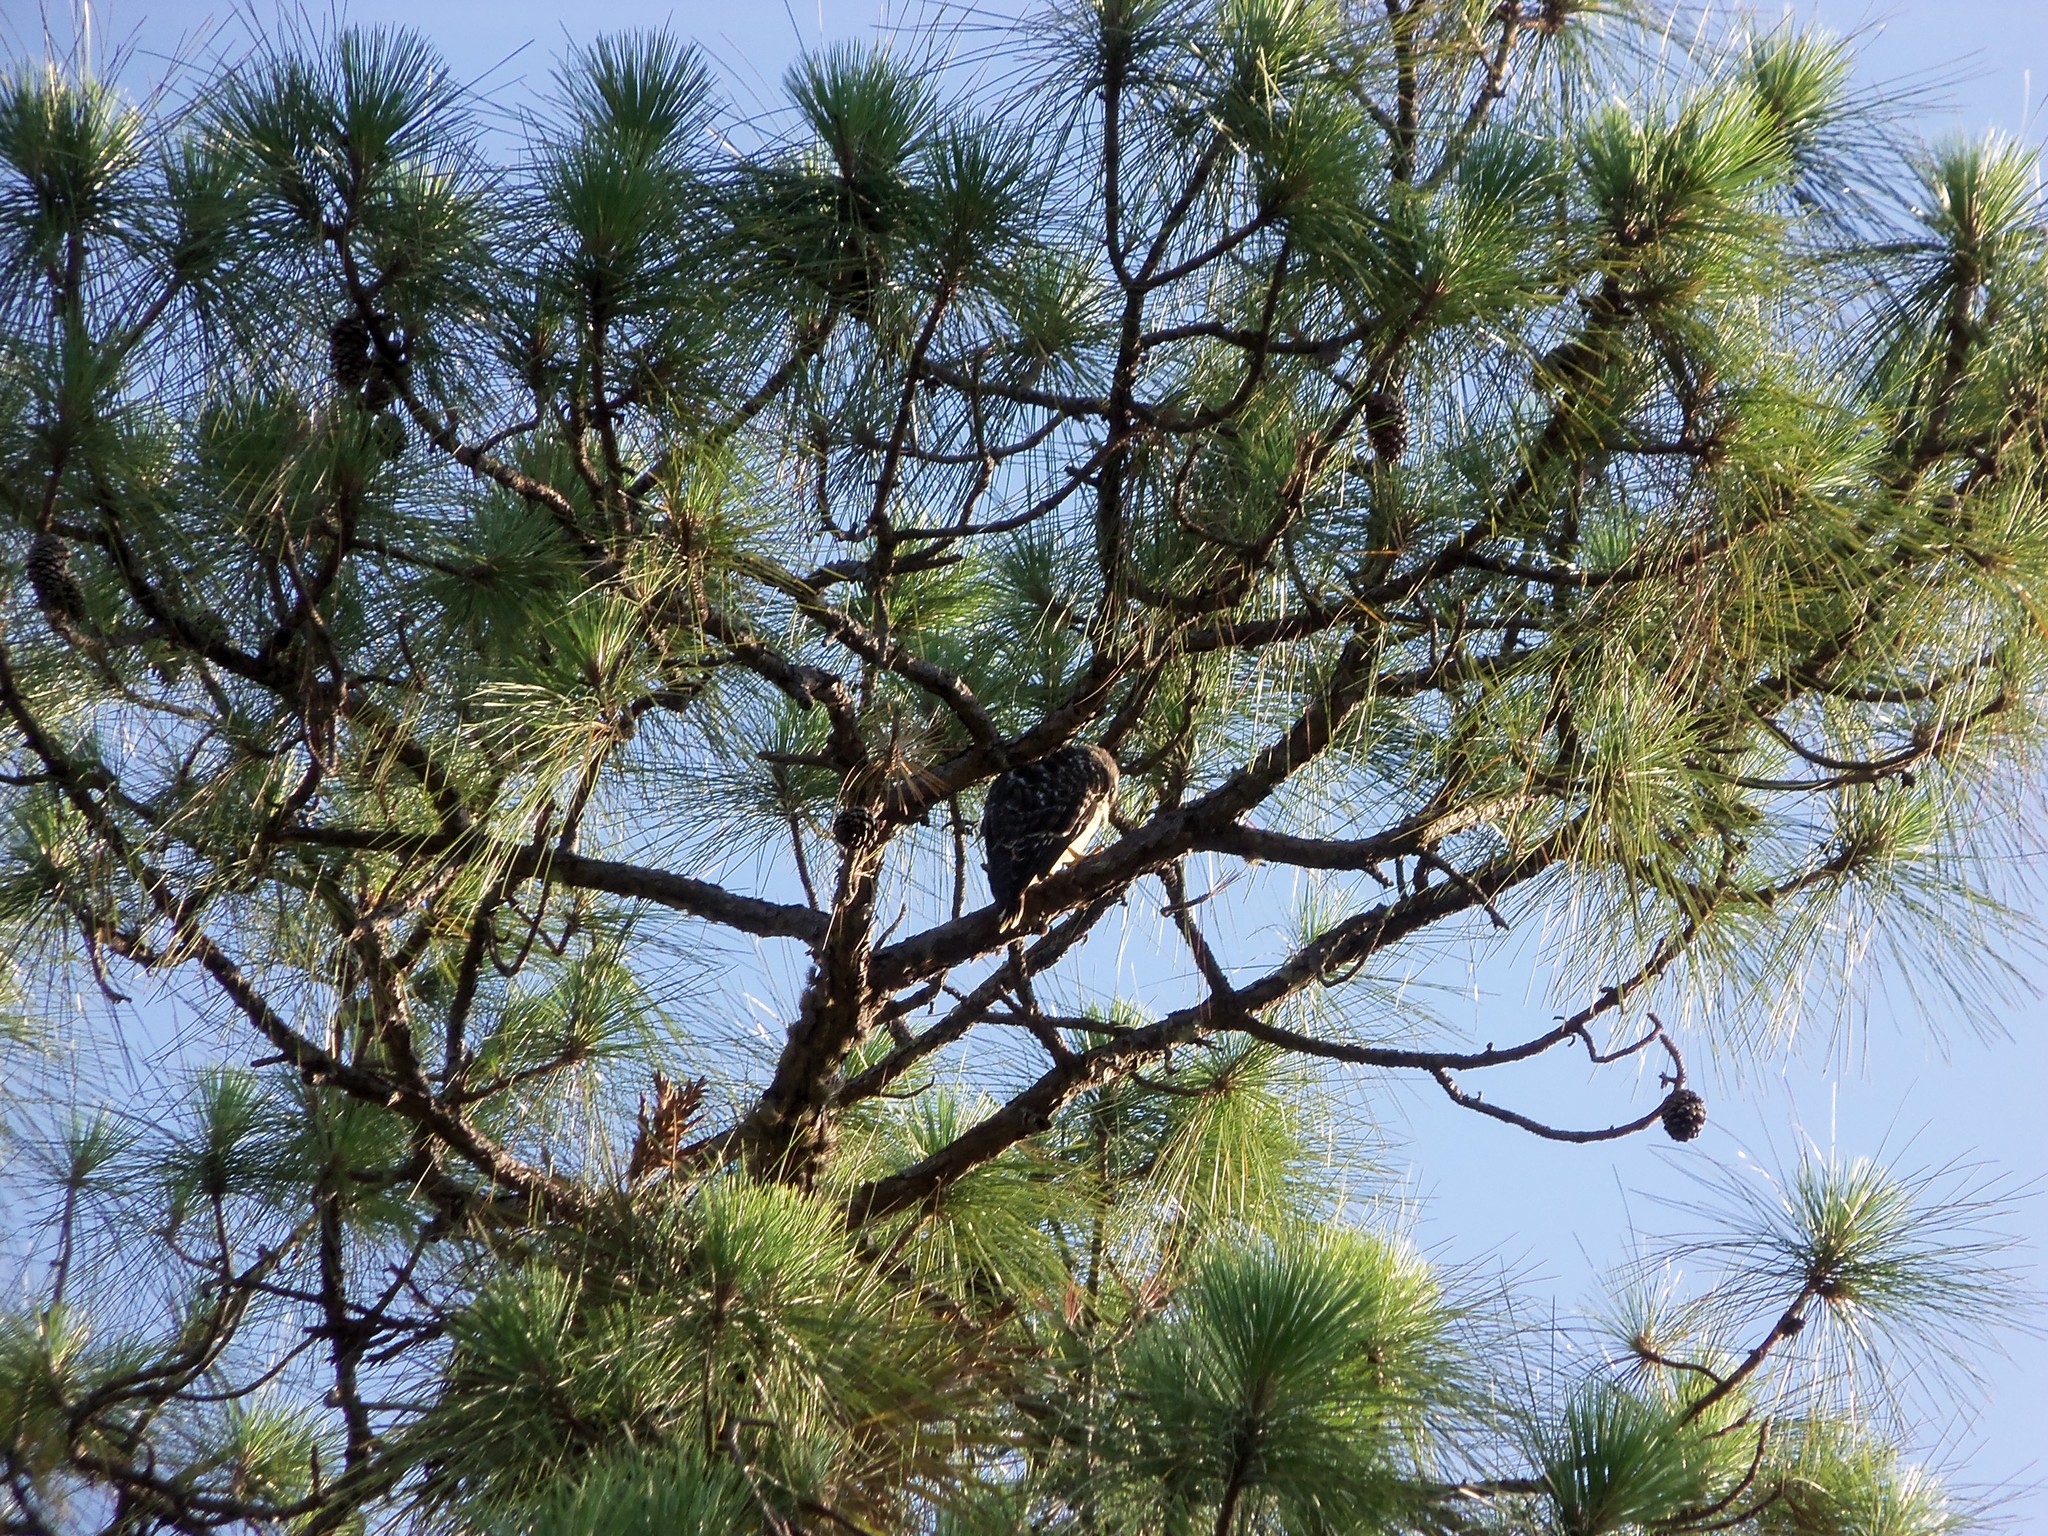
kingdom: Animalia
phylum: Chordata
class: Aves
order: Accipitriformes
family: Accipitridae
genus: Buteo
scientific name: Buteo lineatus
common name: Red-shouldered hawk
